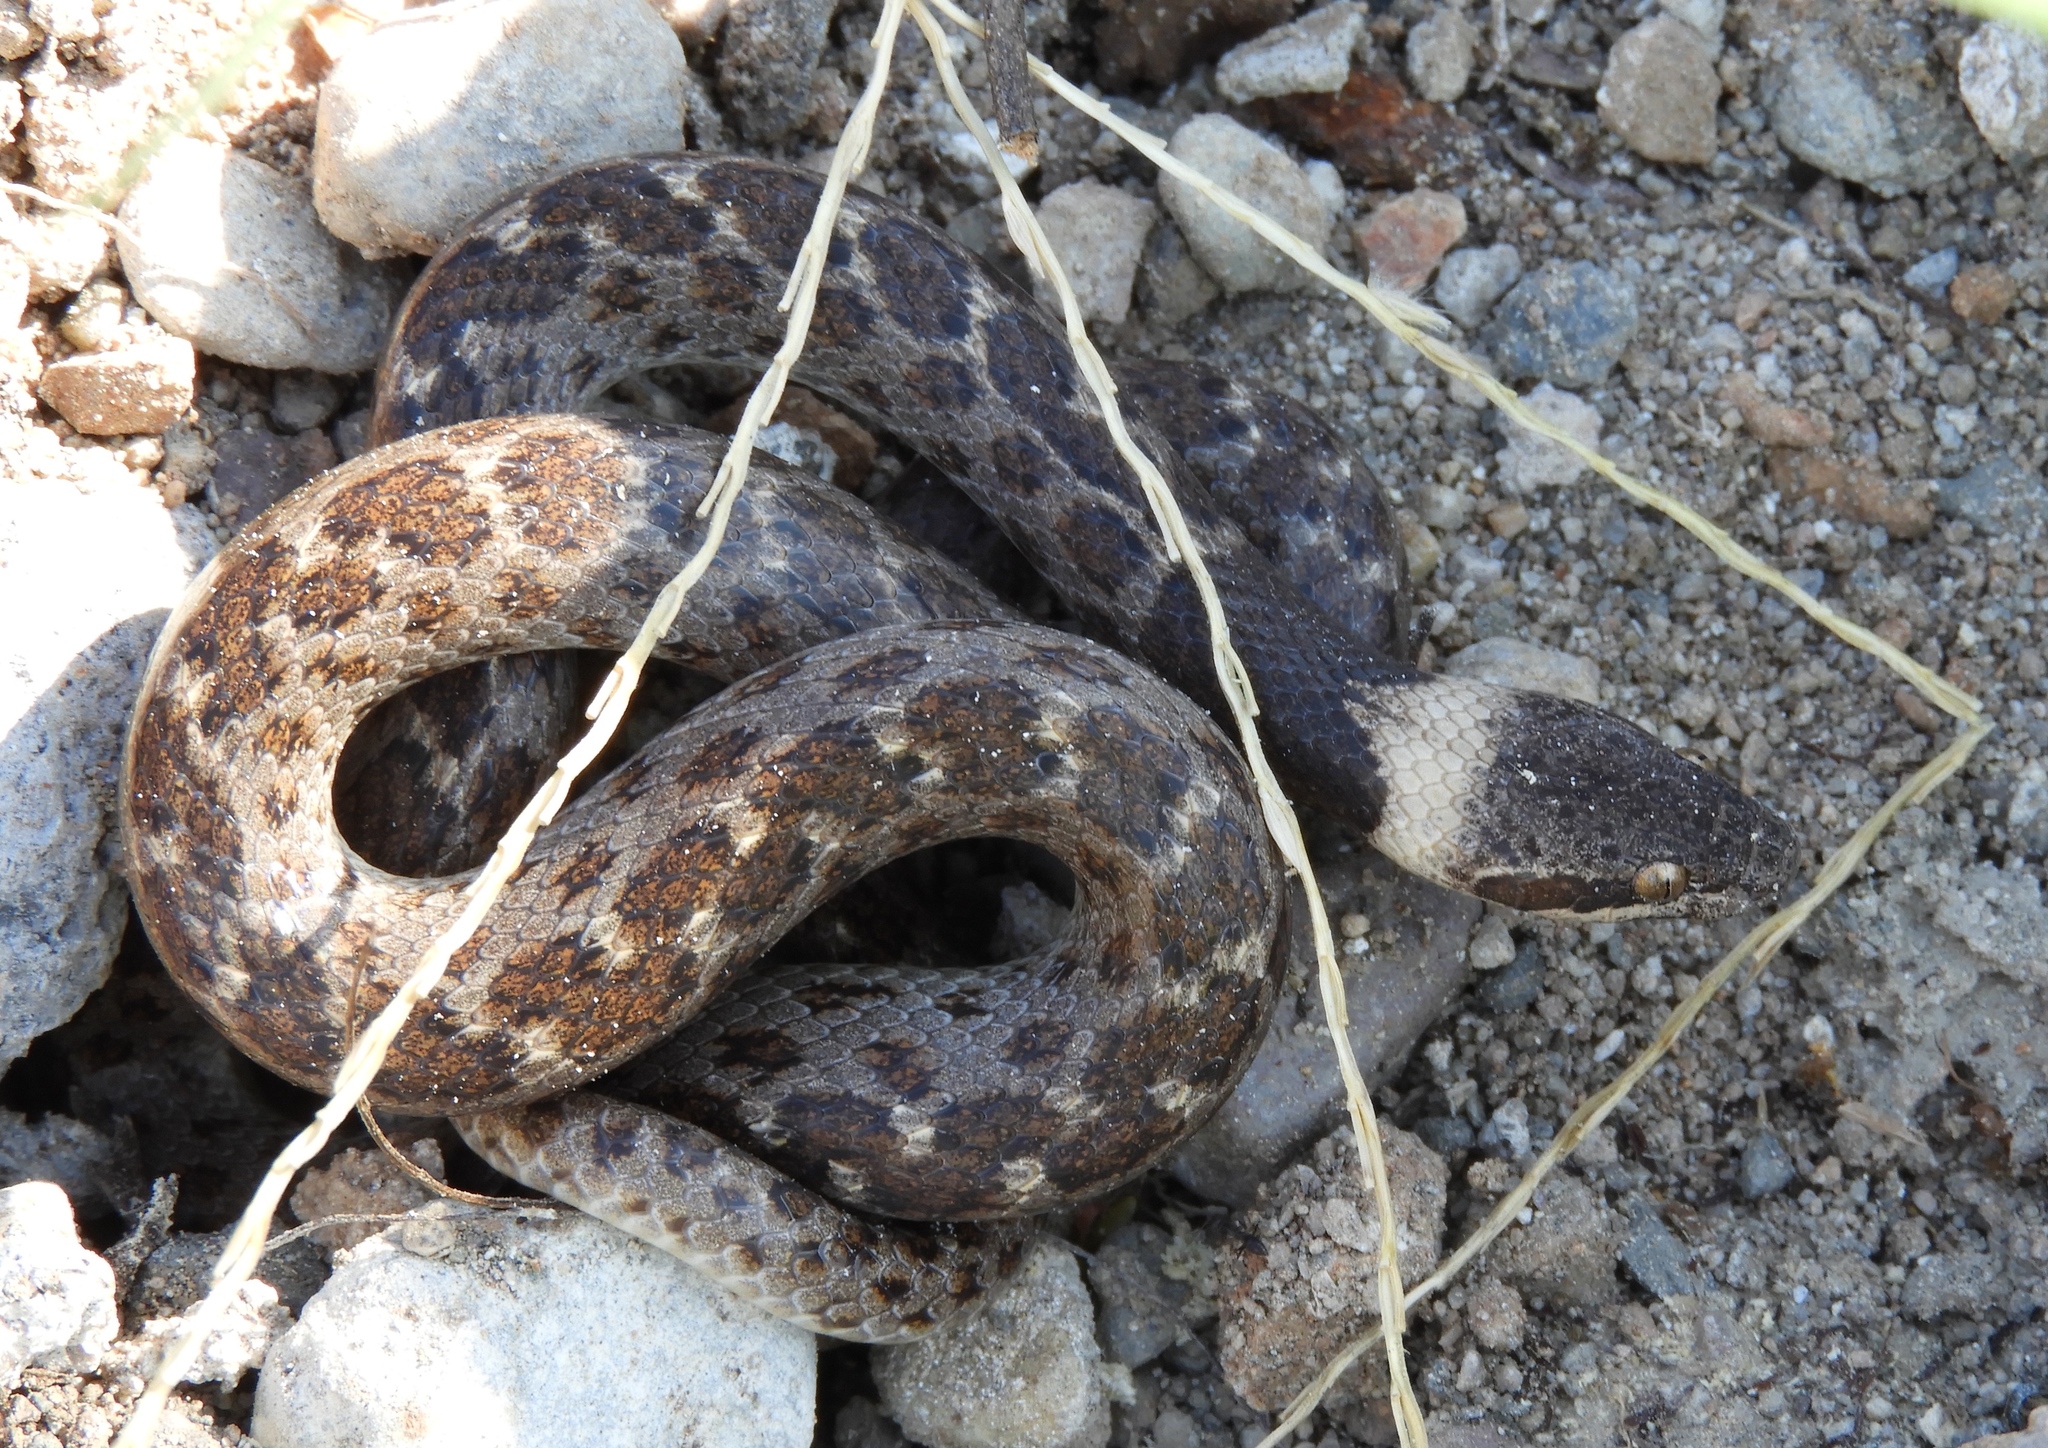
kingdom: Animalia
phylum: Chordata
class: Squamata
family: Colubridae
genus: Hypsiglena
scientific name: Hypsiglena torquata
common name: Night snake
